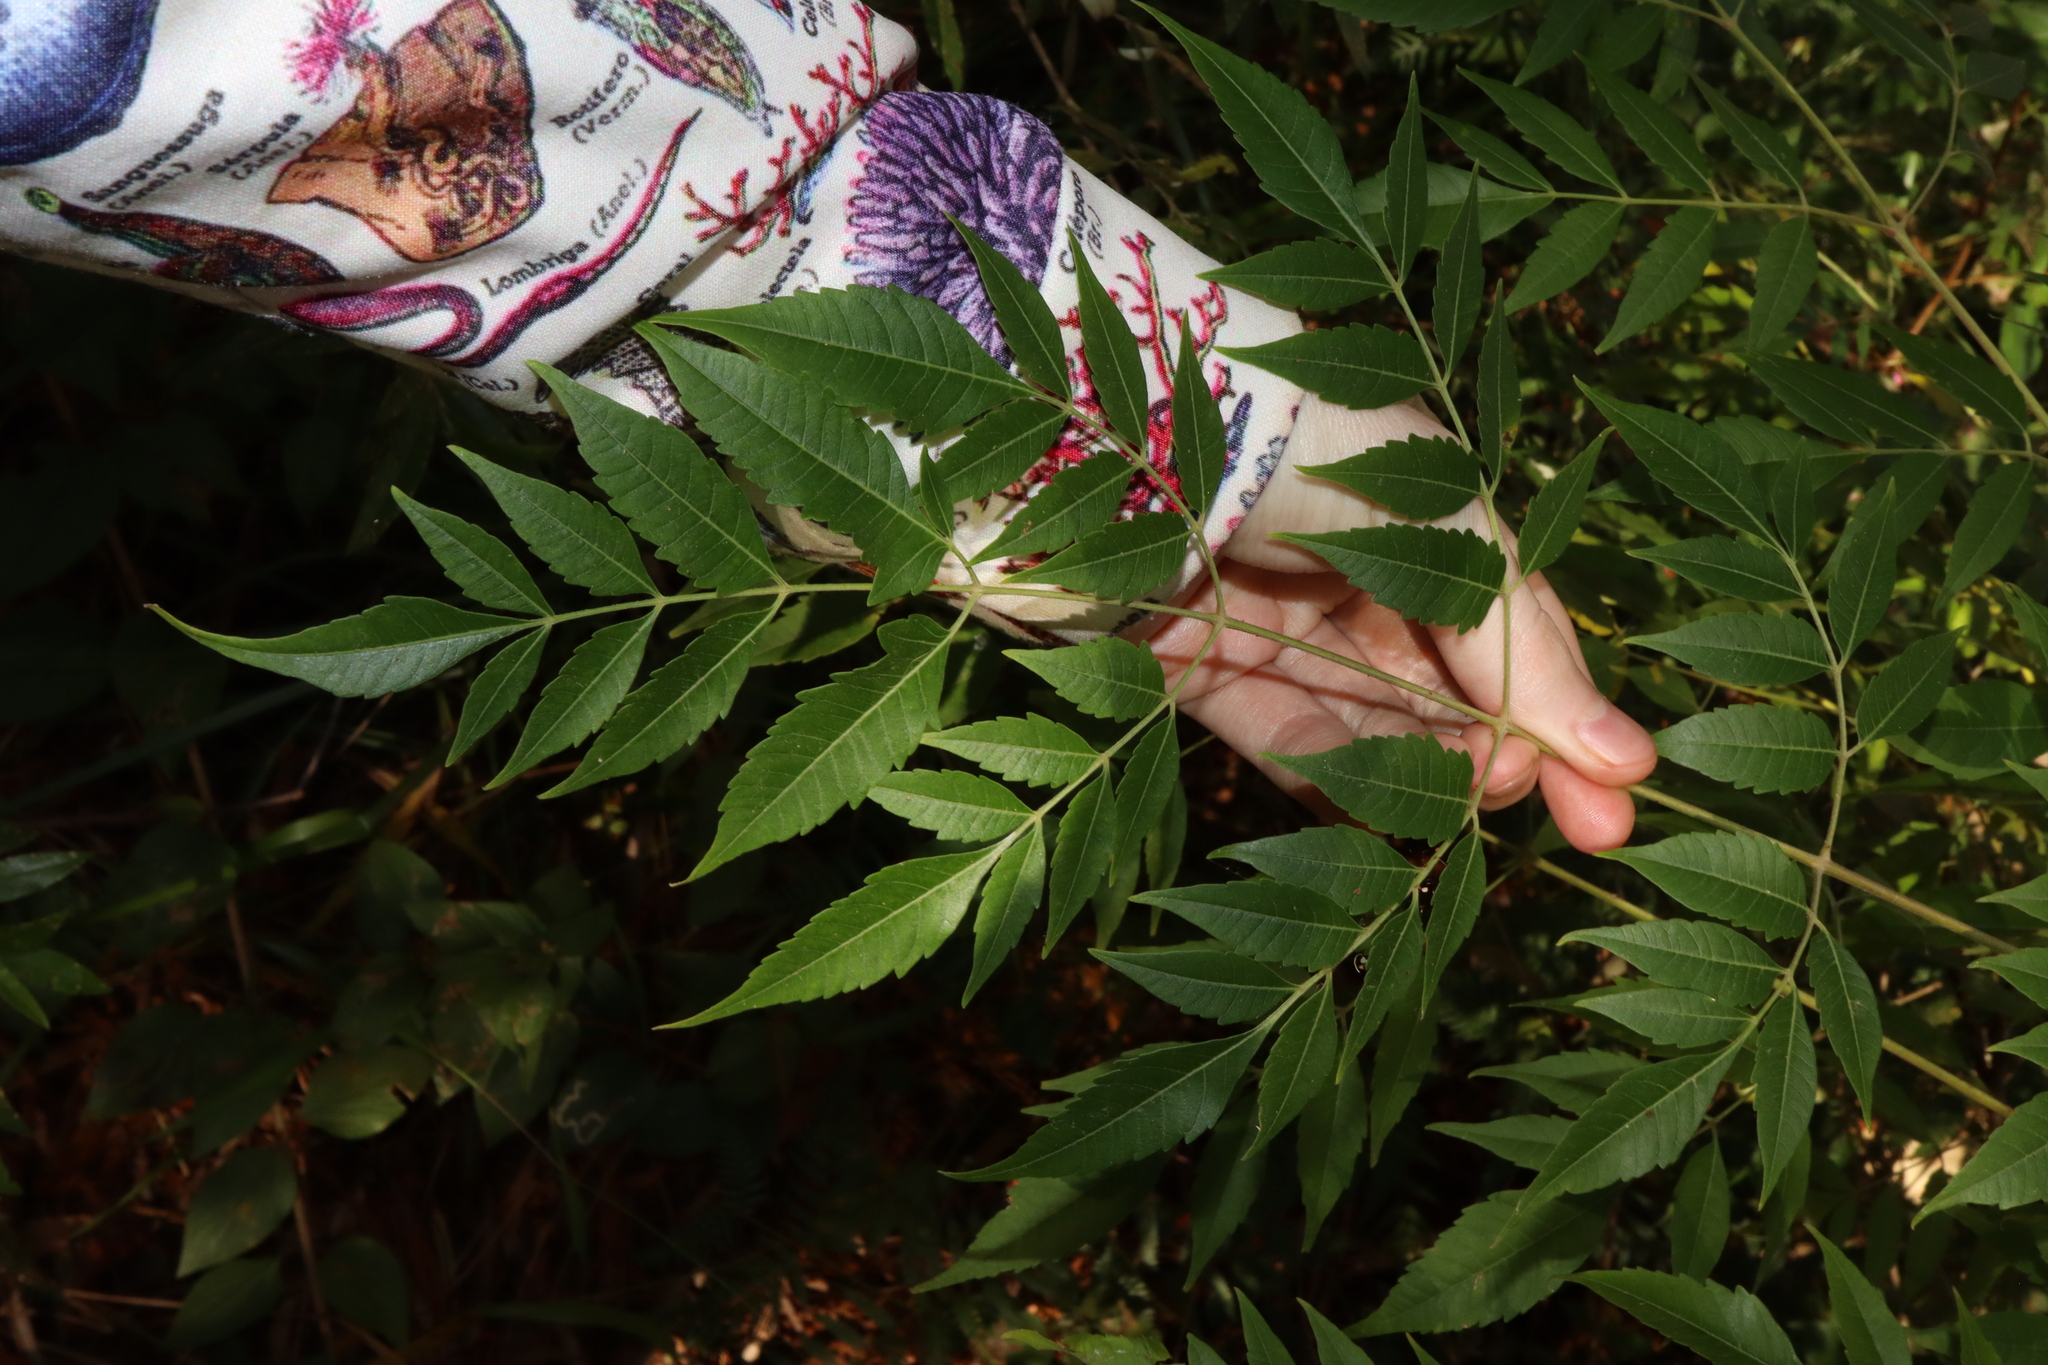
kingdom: Plantae
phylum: Tracheophyta
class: Magnoliopsida
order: Sapindales
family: Meliaceae
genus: Melia
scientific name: Melia azedarach
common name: Chinaberrytree
